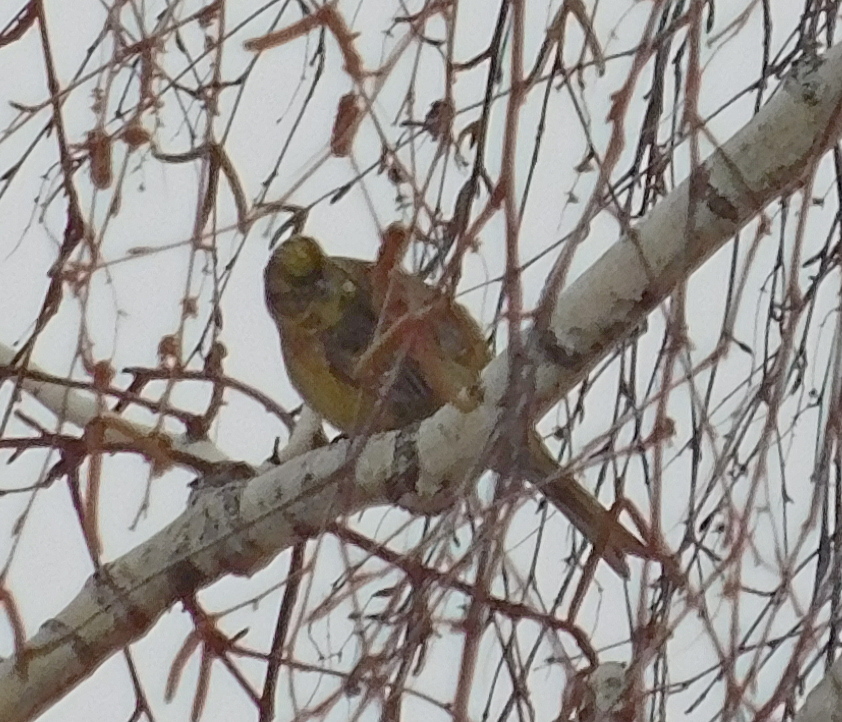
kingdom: Animalia
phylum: Chordata
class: Aves
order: Passeriformes
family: Emberizidae
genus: Emberiza
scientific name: Emberiza citrinella
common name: Yellowhammer
